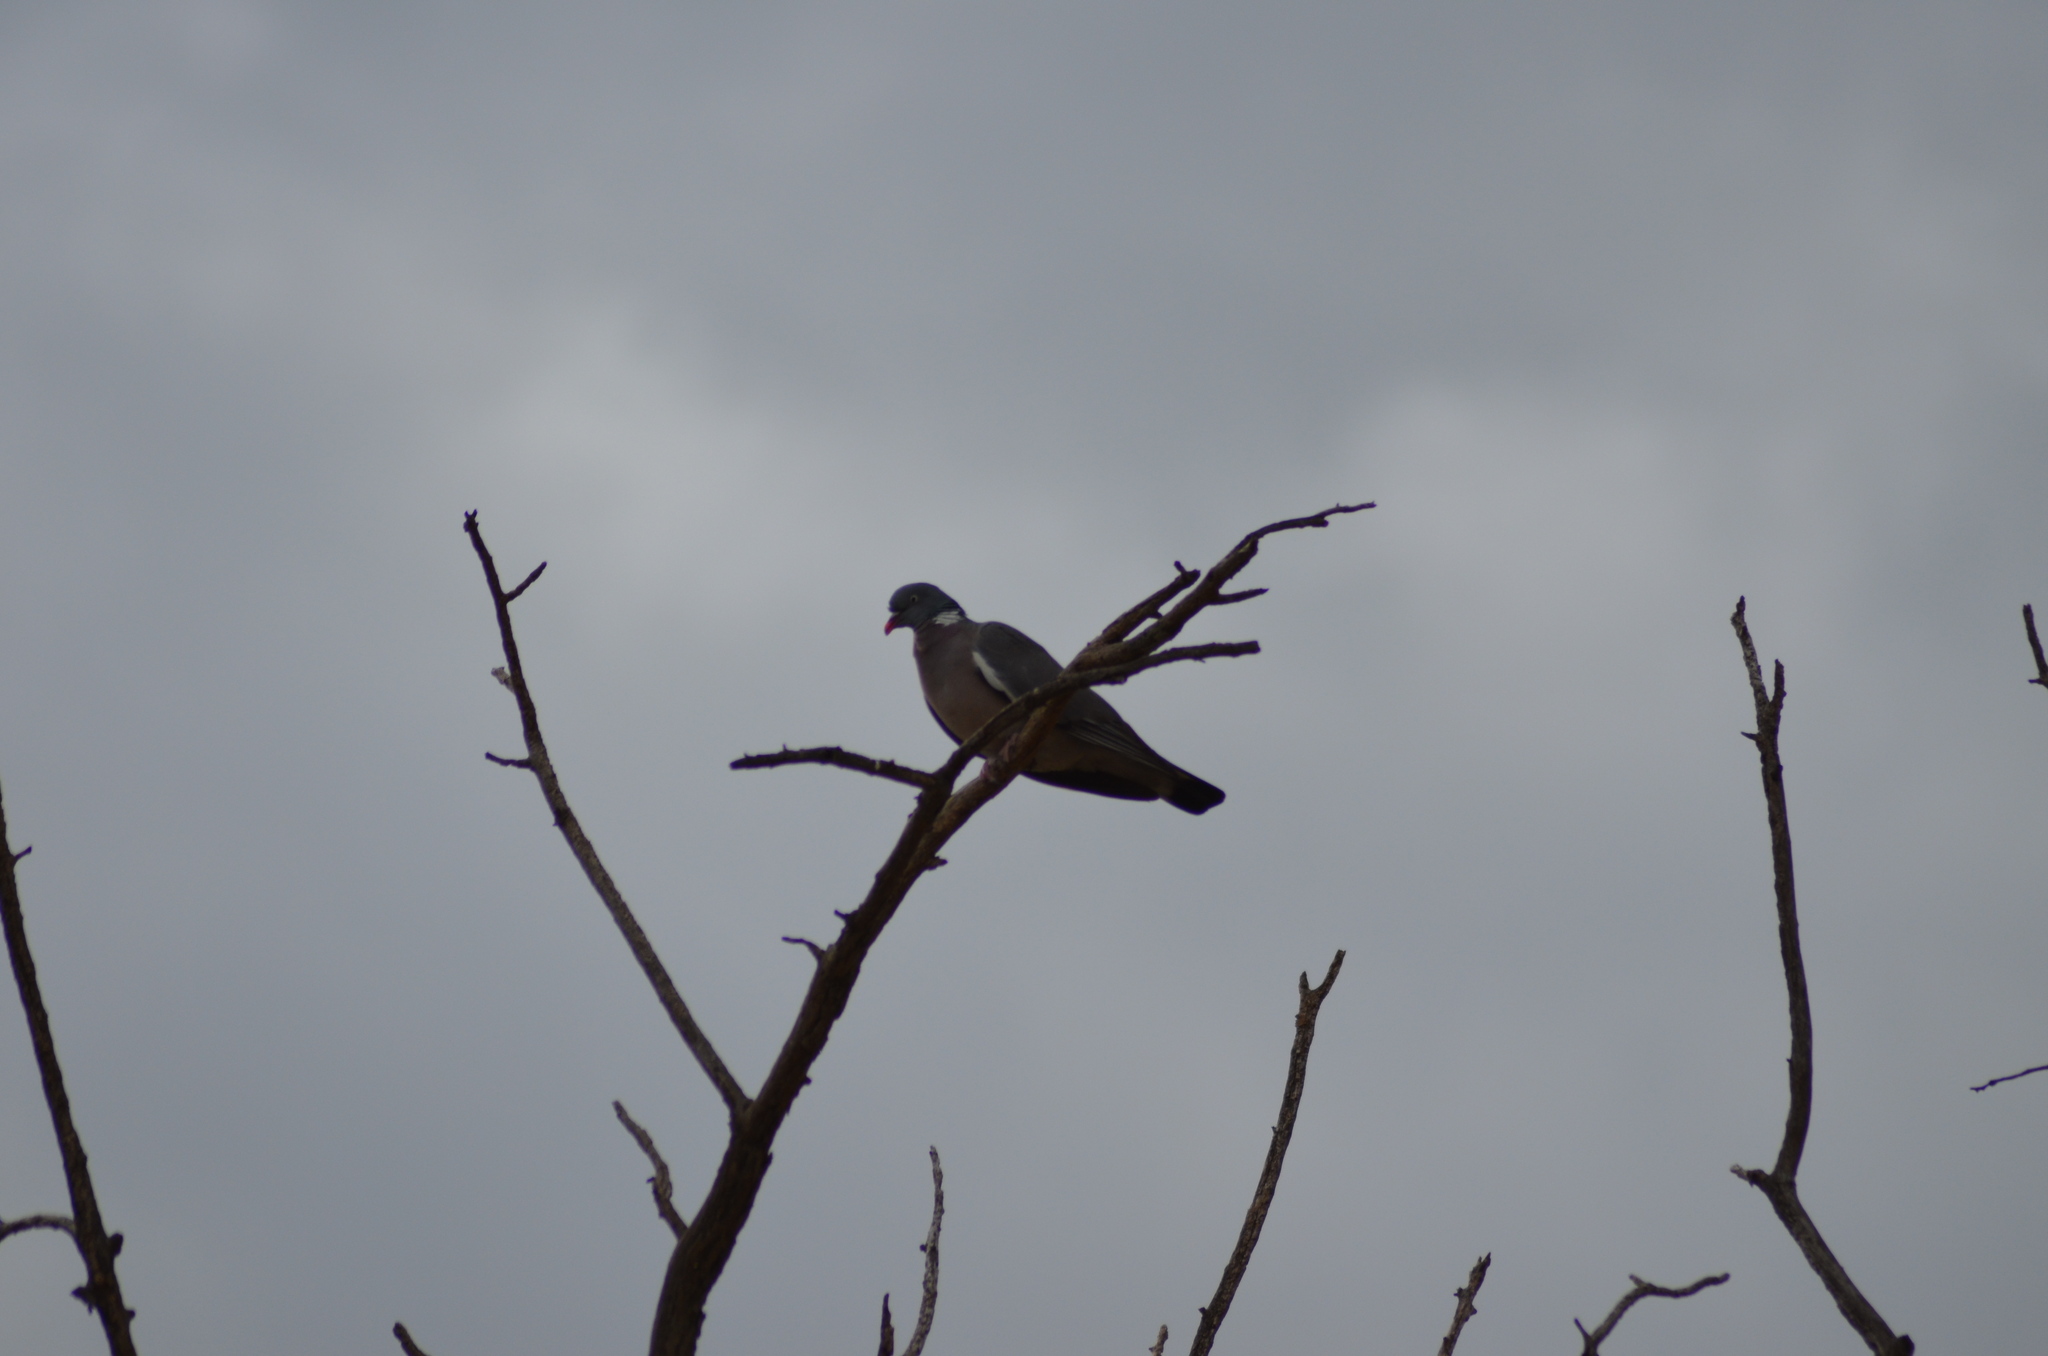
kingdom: Animalia
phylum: Chordata
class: Aves
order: Columbiformes
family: Columbidae
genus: Columba
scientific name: Columba palumbus
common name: Common wood pigeon
